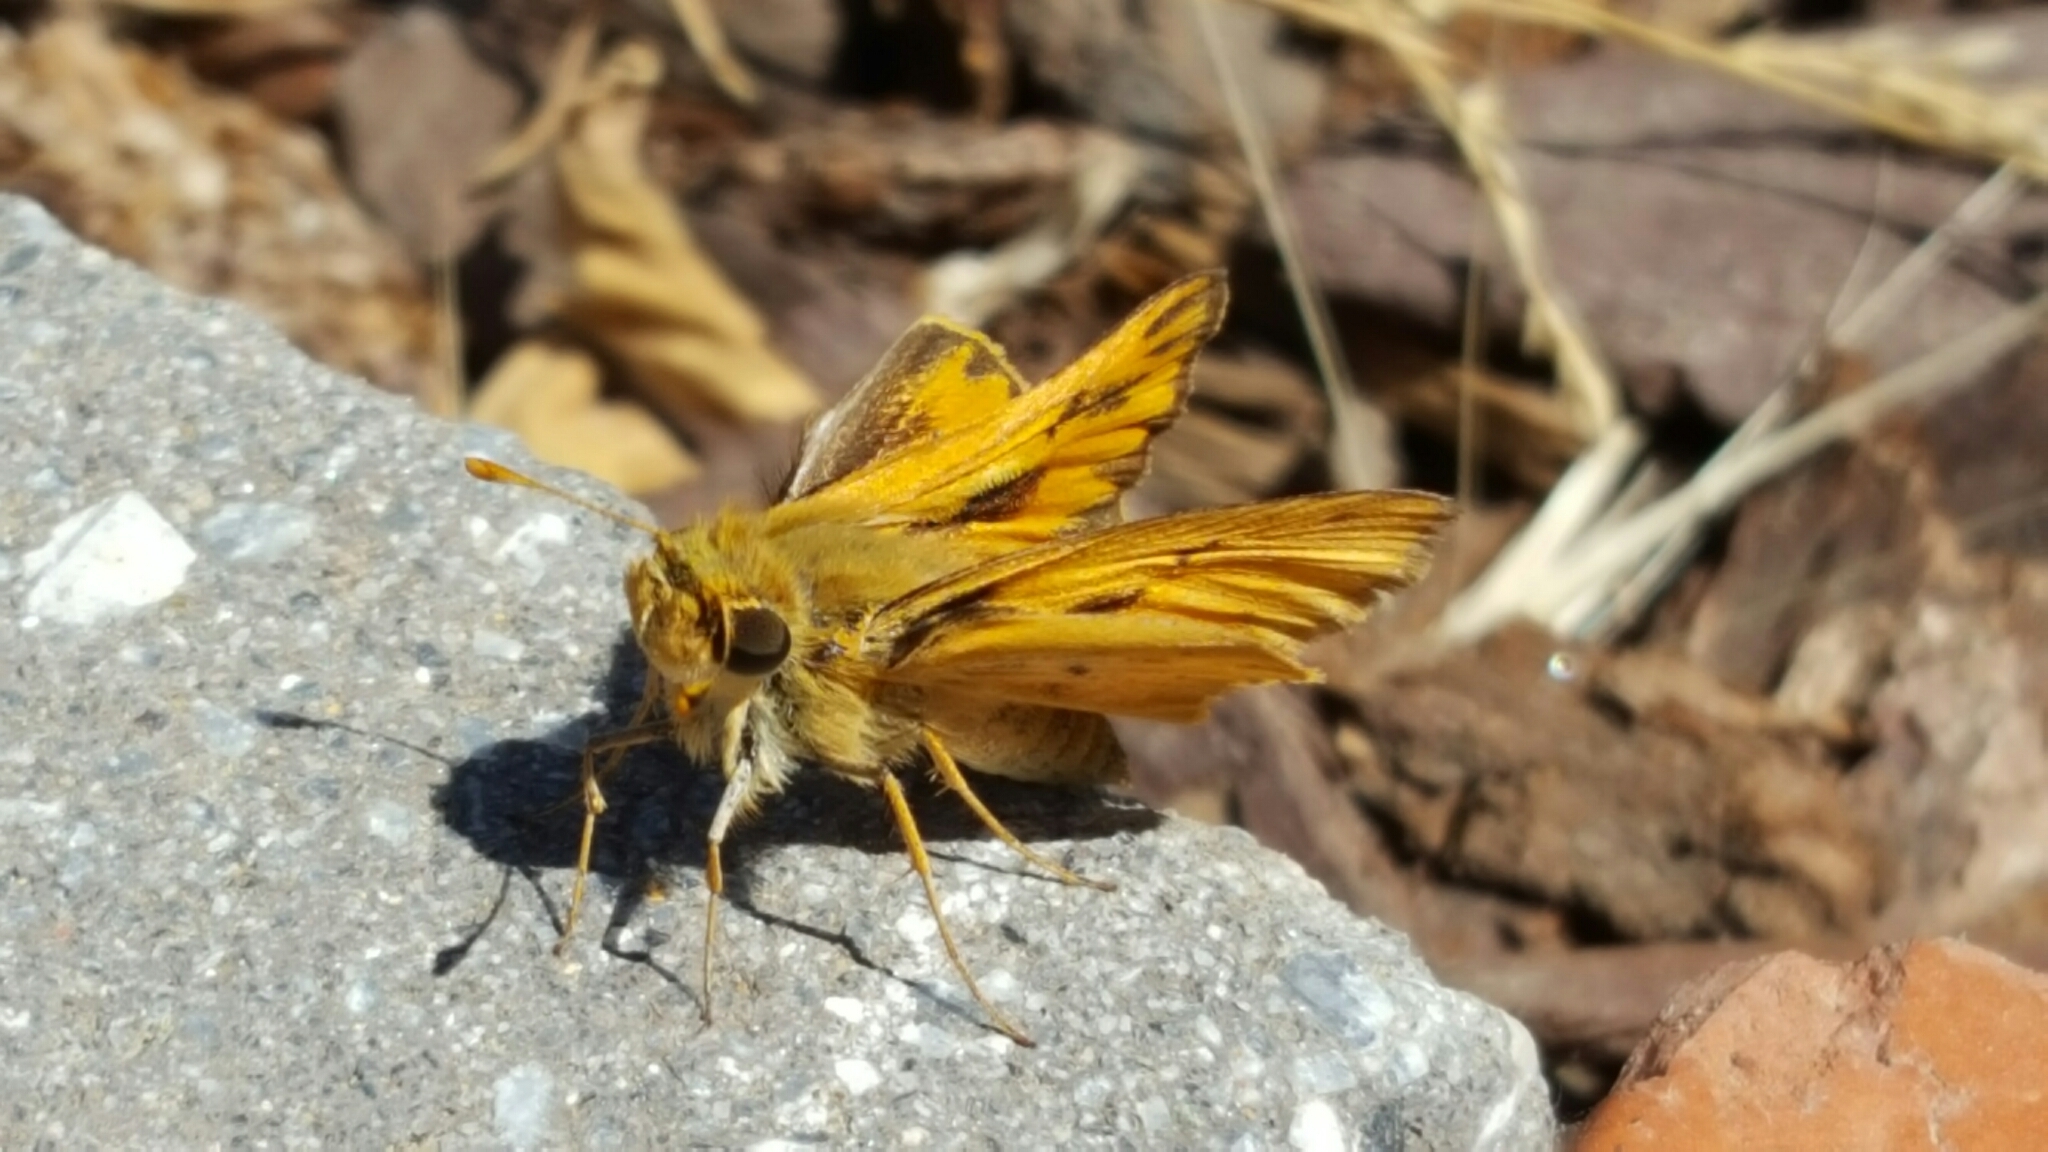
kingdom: Animalia
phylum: Arthropoda
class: Insecta
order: Lepidoptera
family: Hesperiidae
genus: Hylephila
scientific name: Hylephila phyleus
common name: Fiery skipper
